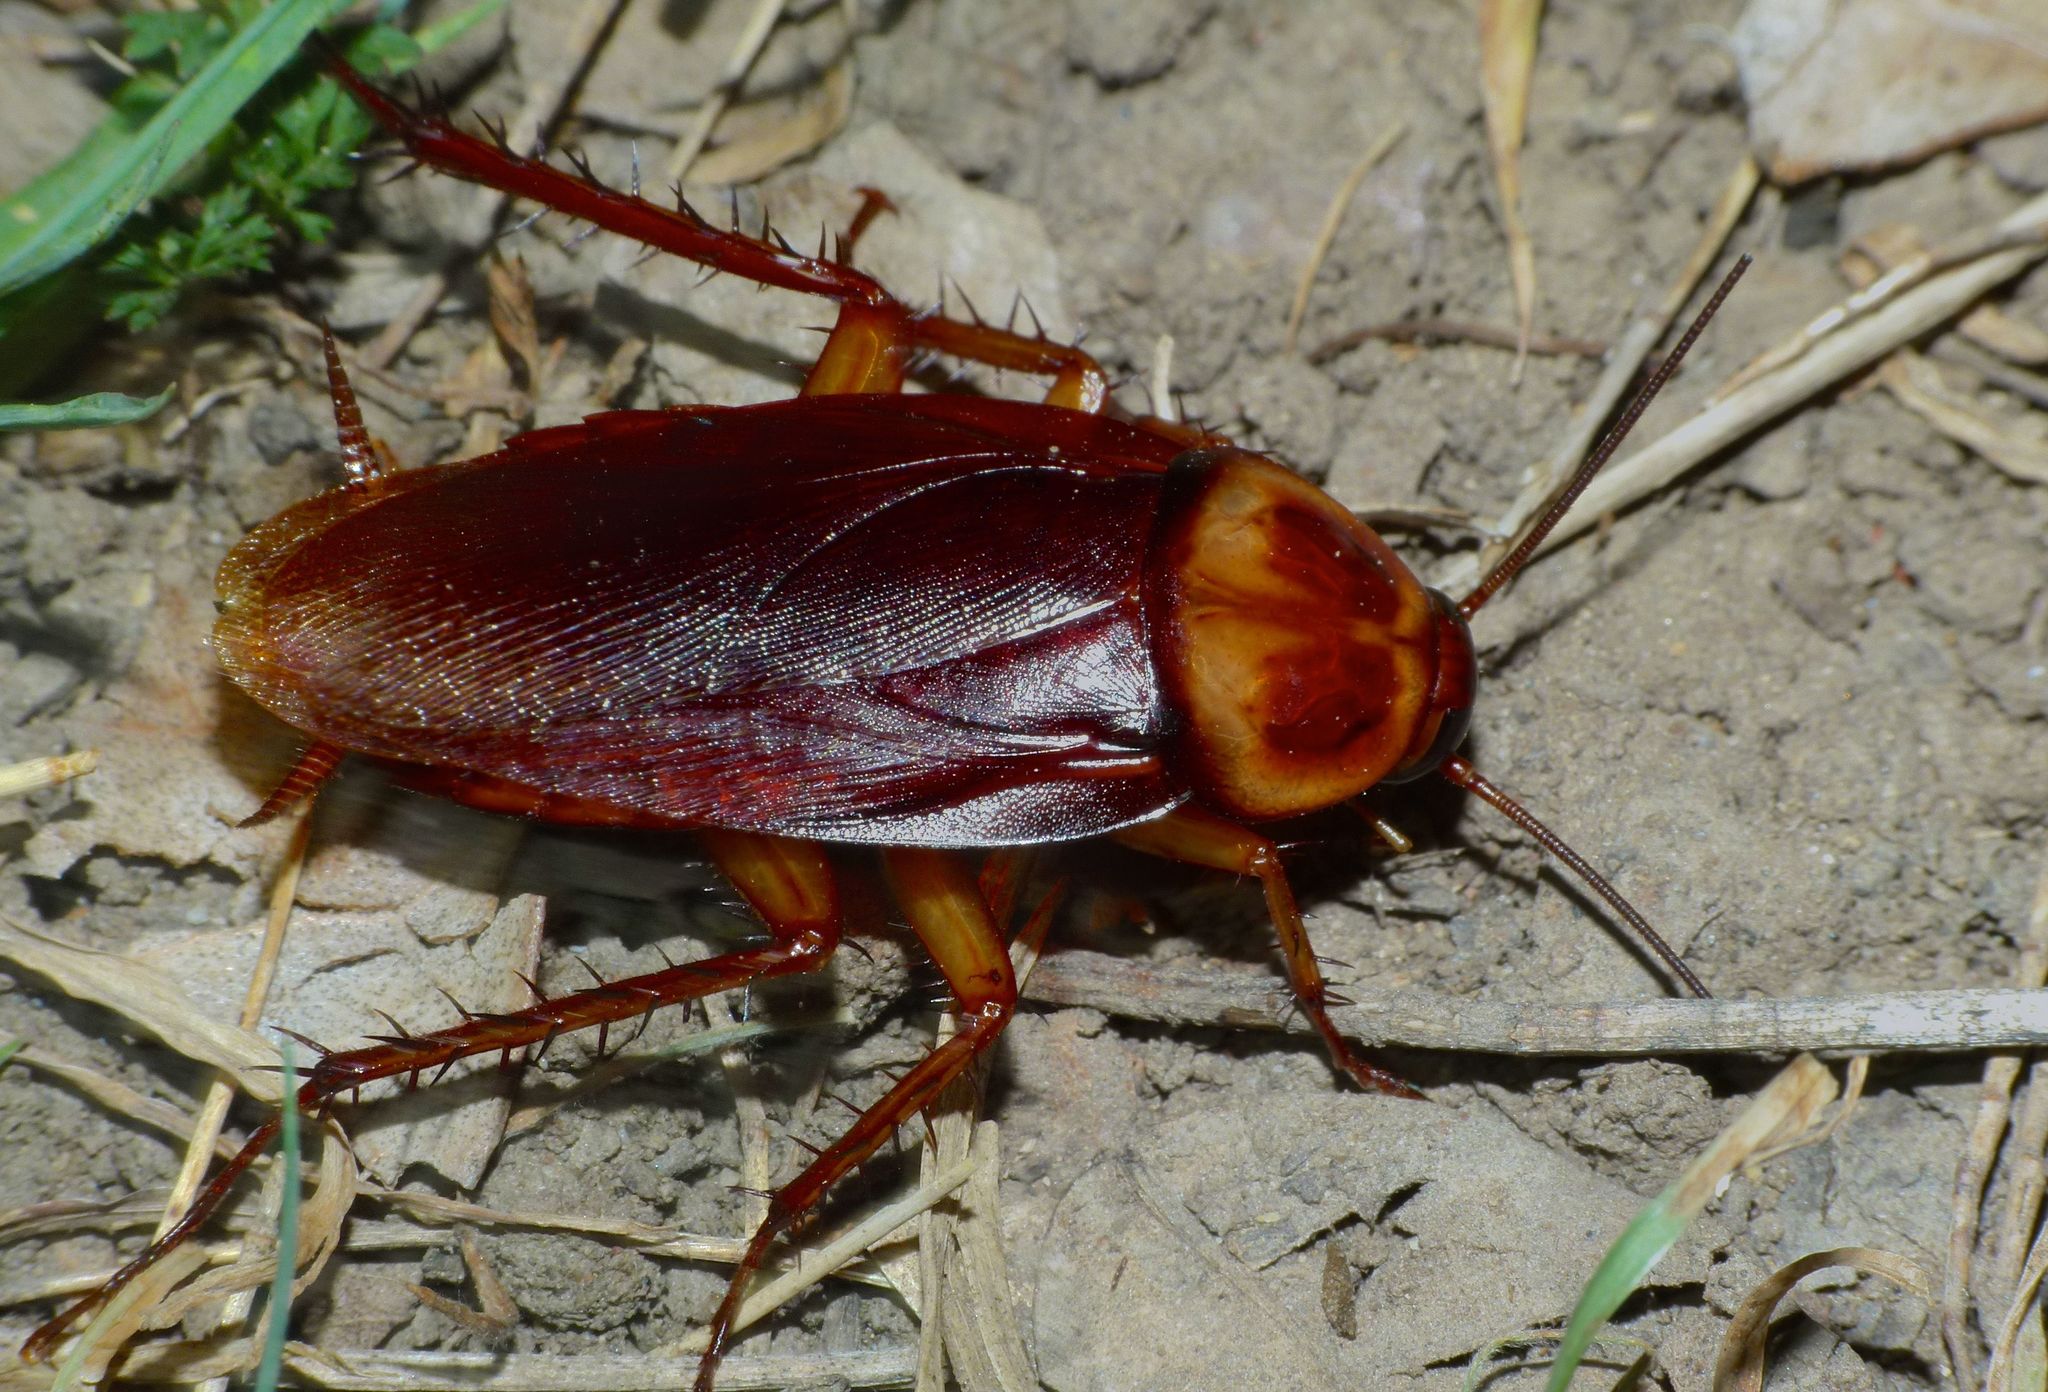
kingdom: Animalia
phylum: Arthropoda
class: Insecta
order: Blattodea
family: Blattidae
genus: Periplaneta
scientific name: Periplaneta americana
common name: American cockroach
